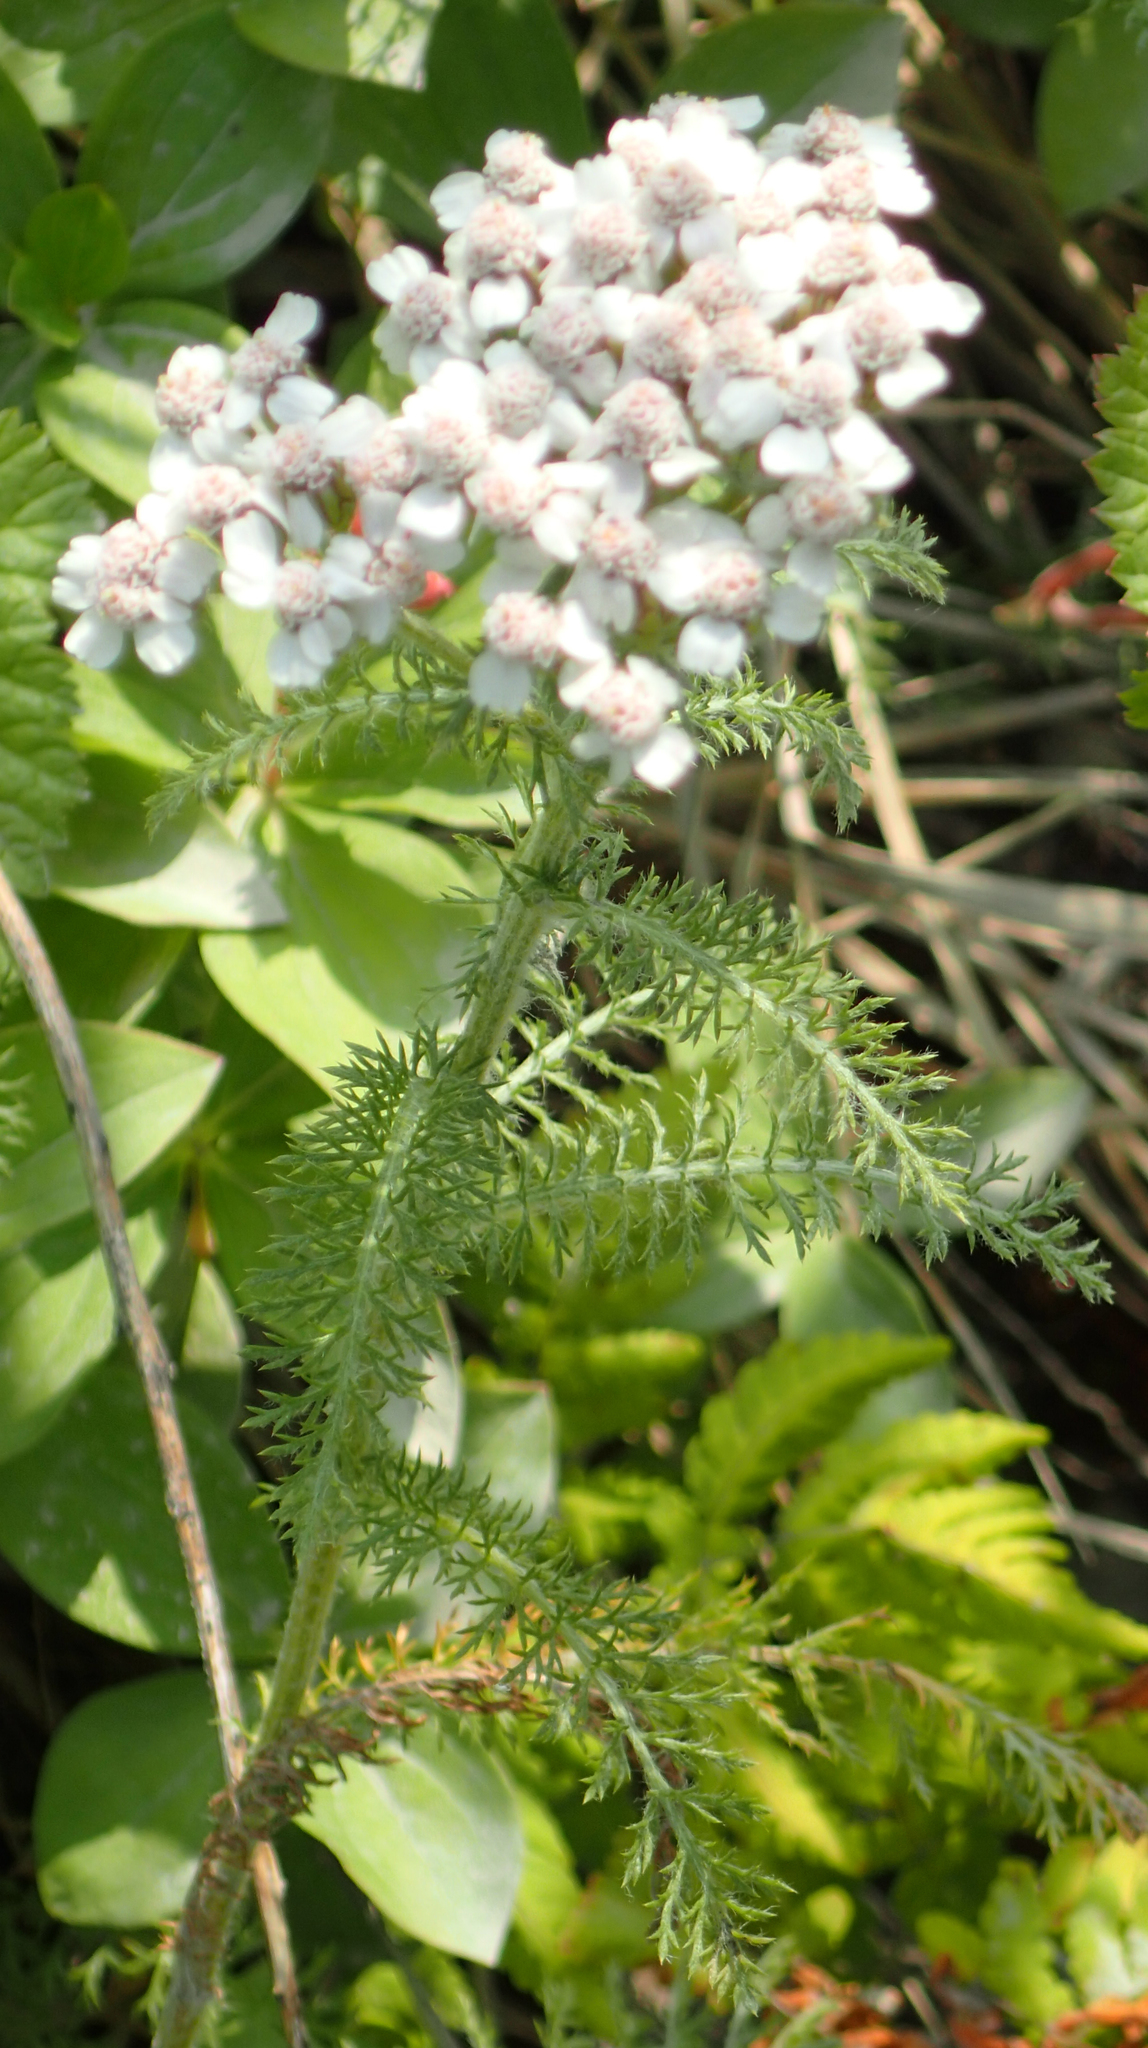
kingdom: Plantae
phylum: Tracheophyta
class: Magnoliopsida
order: Asterales
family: Asteraceae
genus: Achillea
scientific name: Achillea millefolium
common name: Yarrow
